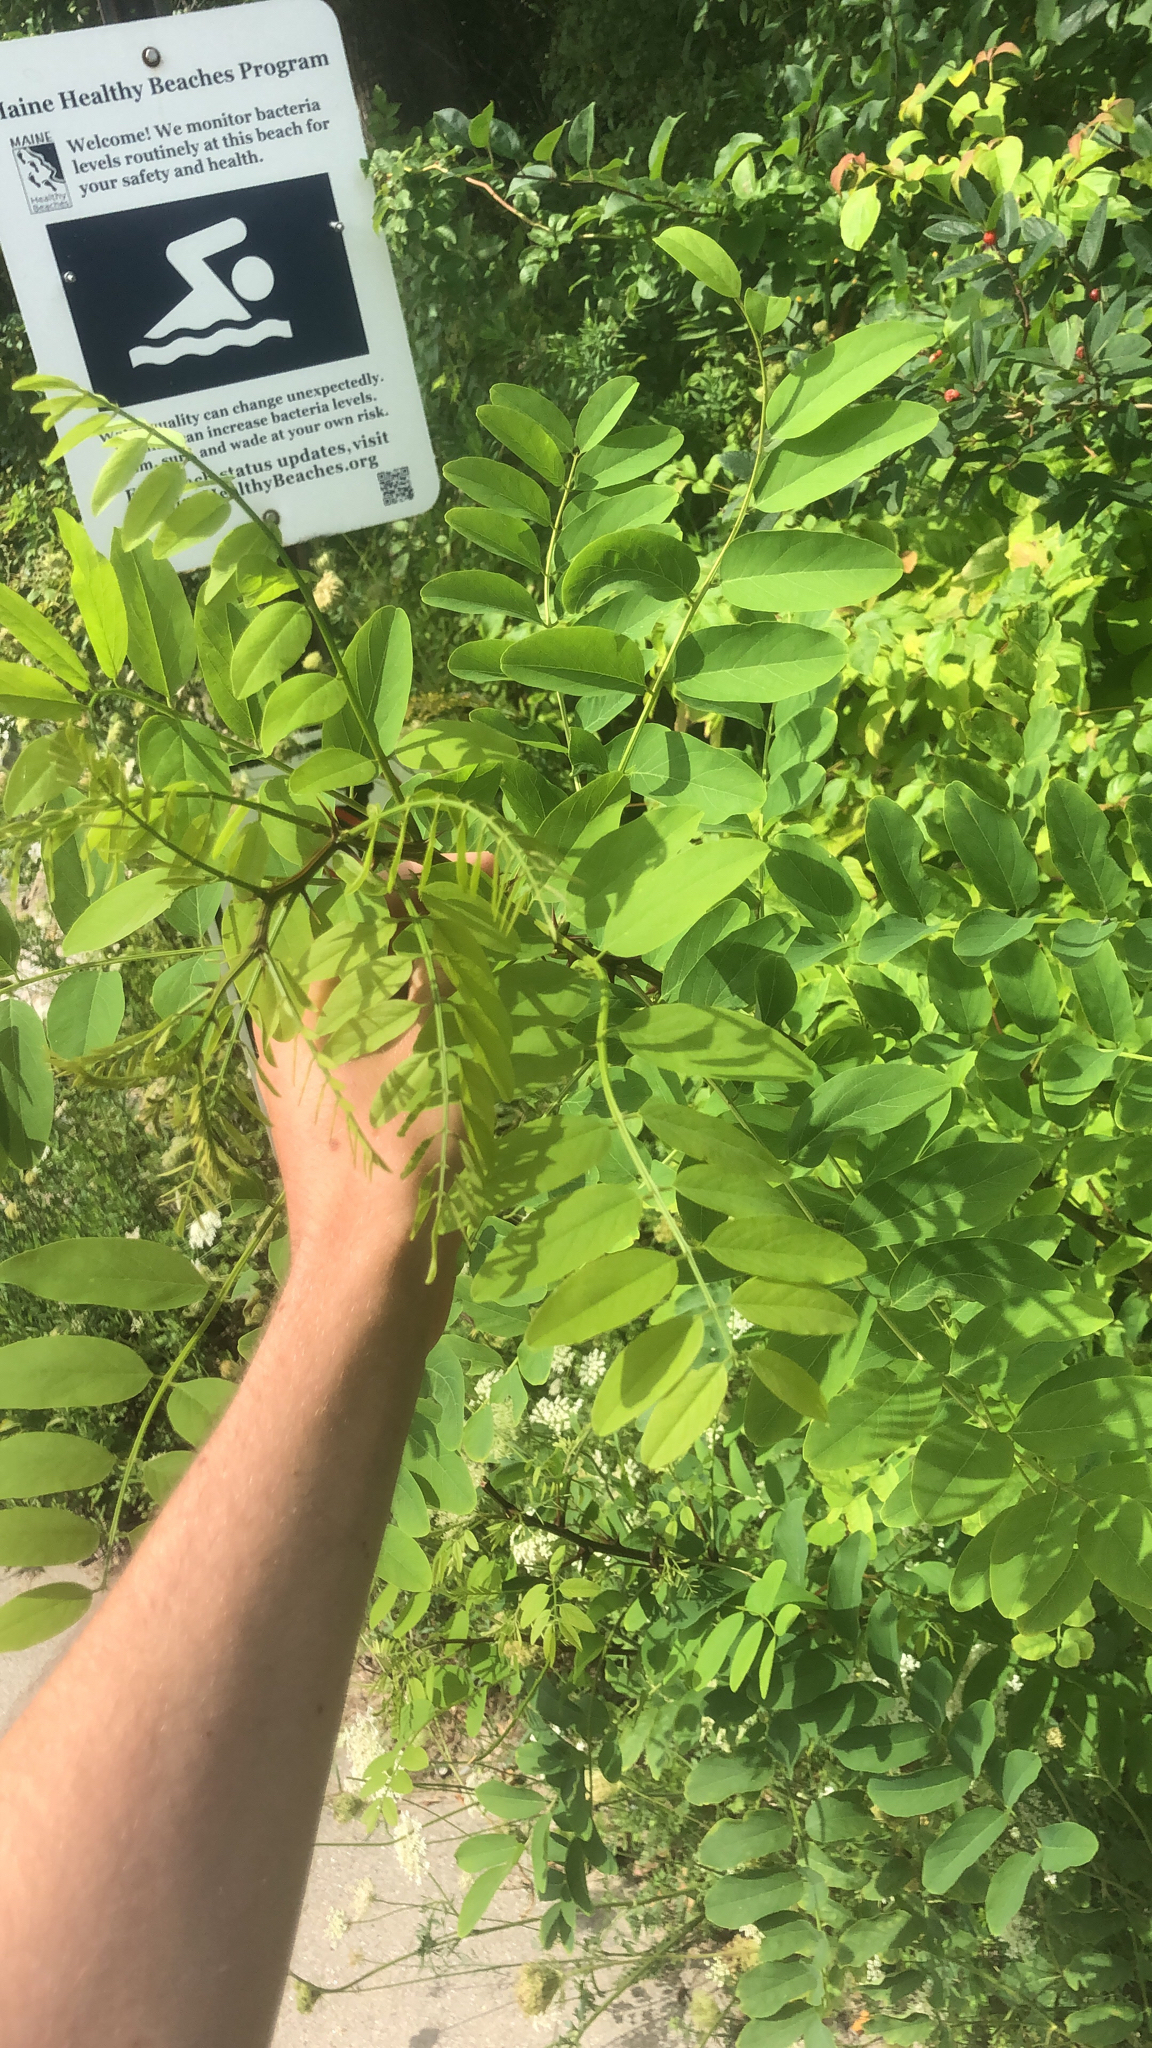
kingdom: Plantae
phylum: Tracheophyta
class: Magnoliopsida
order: Fabales
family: Fabaceae
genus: Robinia
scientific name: Robinia pseudoacacia
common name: Black locust
